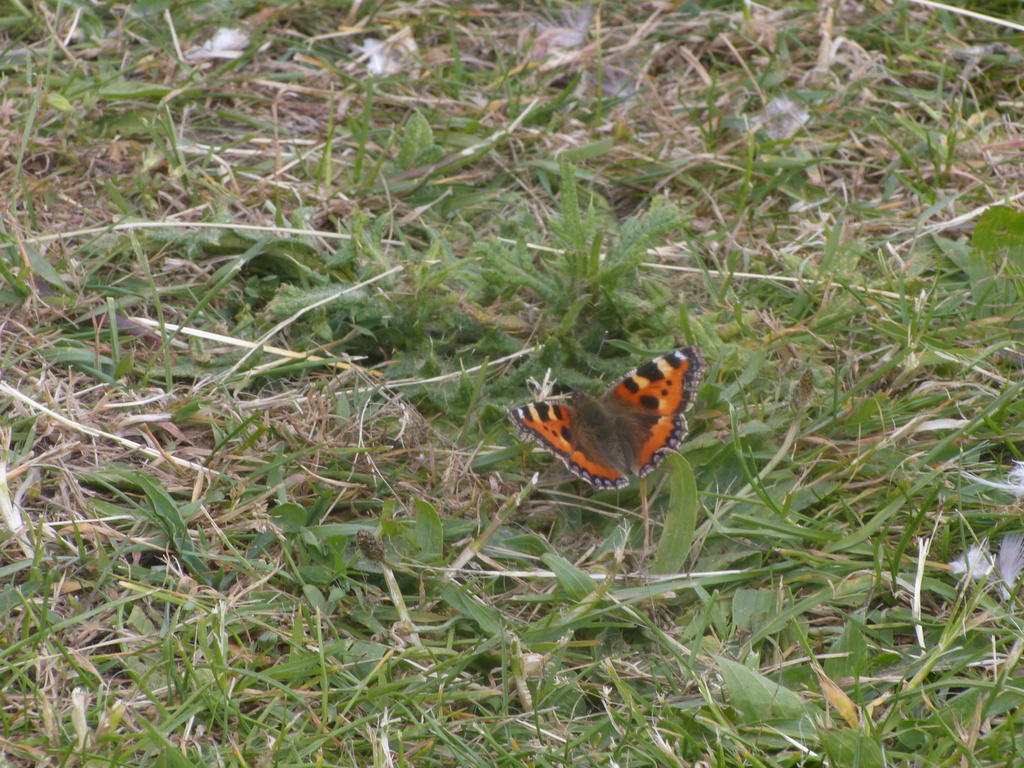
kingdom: Animalia
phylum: Arthropoda
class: Insecta
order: Lepidoptera
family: Nymphalidae
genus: Aglais
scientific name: Aglais urticae
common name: Small tortoiseshell
